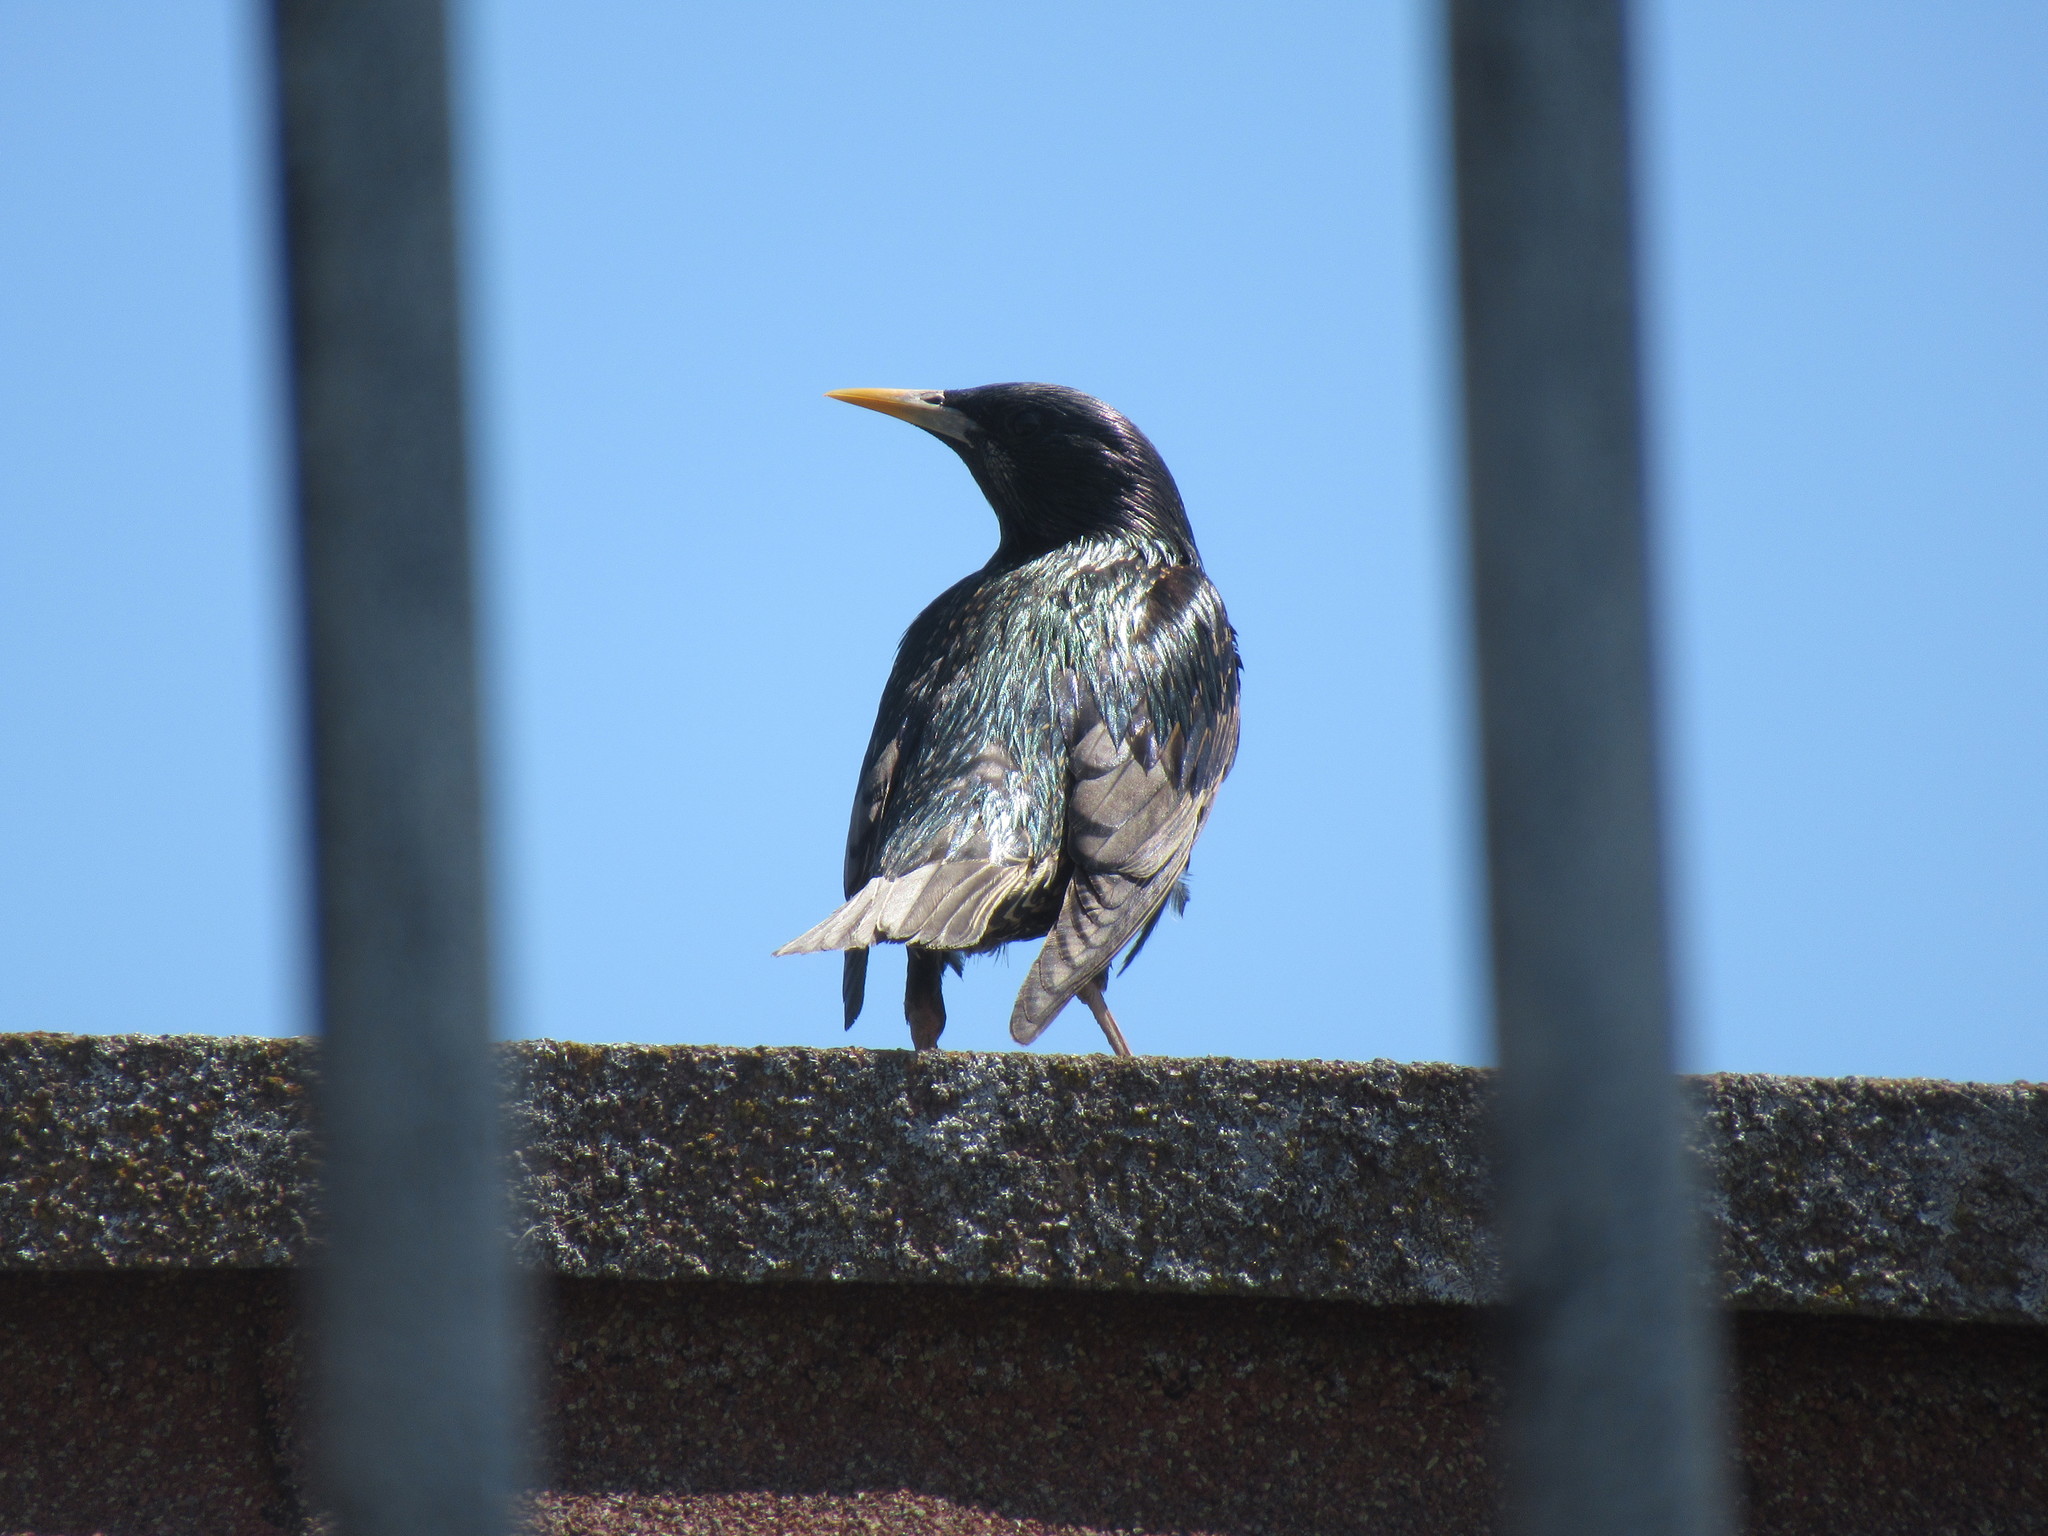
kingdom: Animalia
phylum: Chordata
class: Aves
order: Passeriformes
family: Sturnidae
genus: Sturnus
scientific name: Sturnus vulgaris
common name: Common starling
